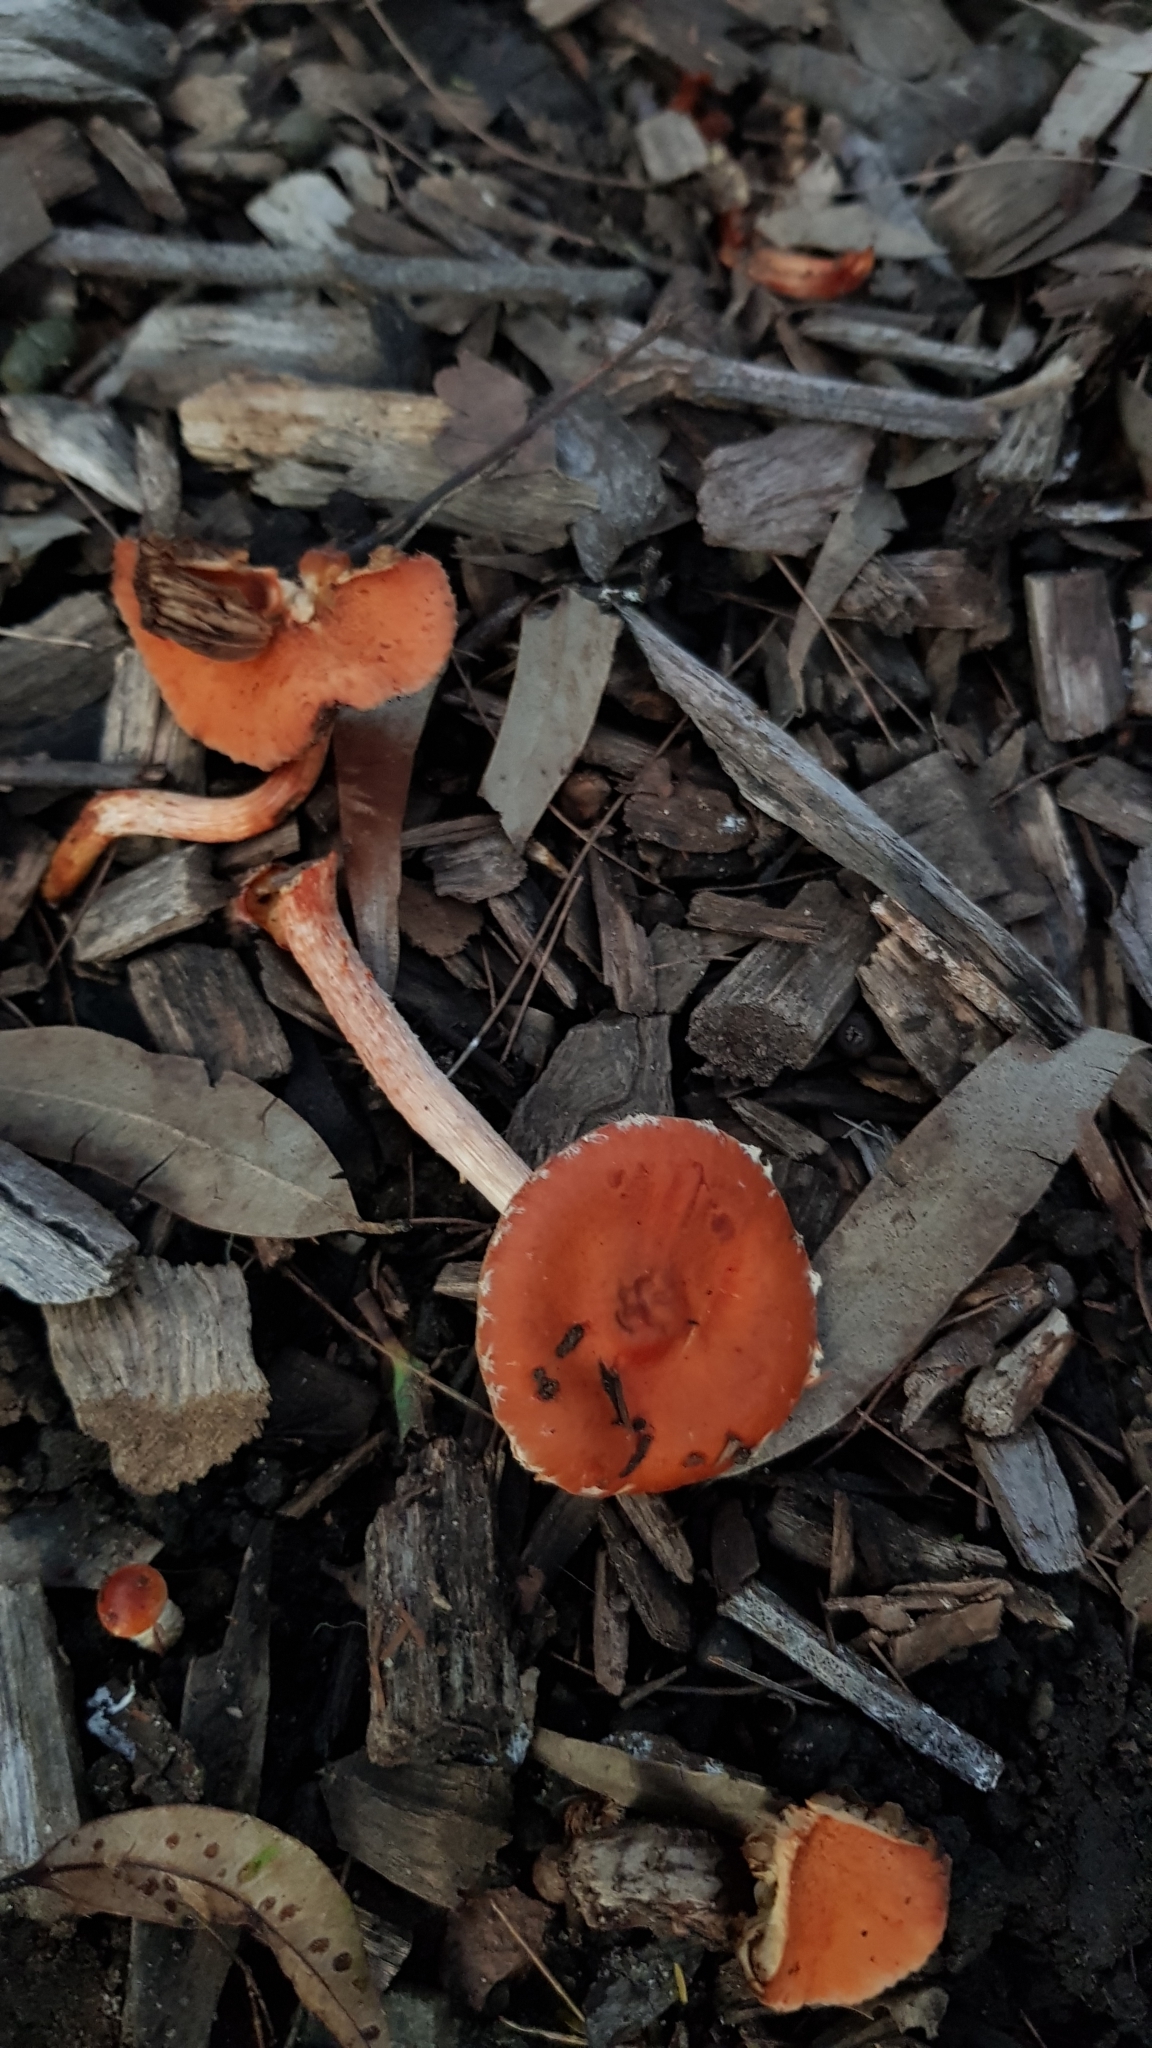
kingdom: Fungi
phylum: Basidiomycota
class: Agaricomycetes
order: Agaricales
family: Strophariaceae
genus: Leratiomyces
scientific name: Leratiomyces ceres
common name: Redlead roundhead
